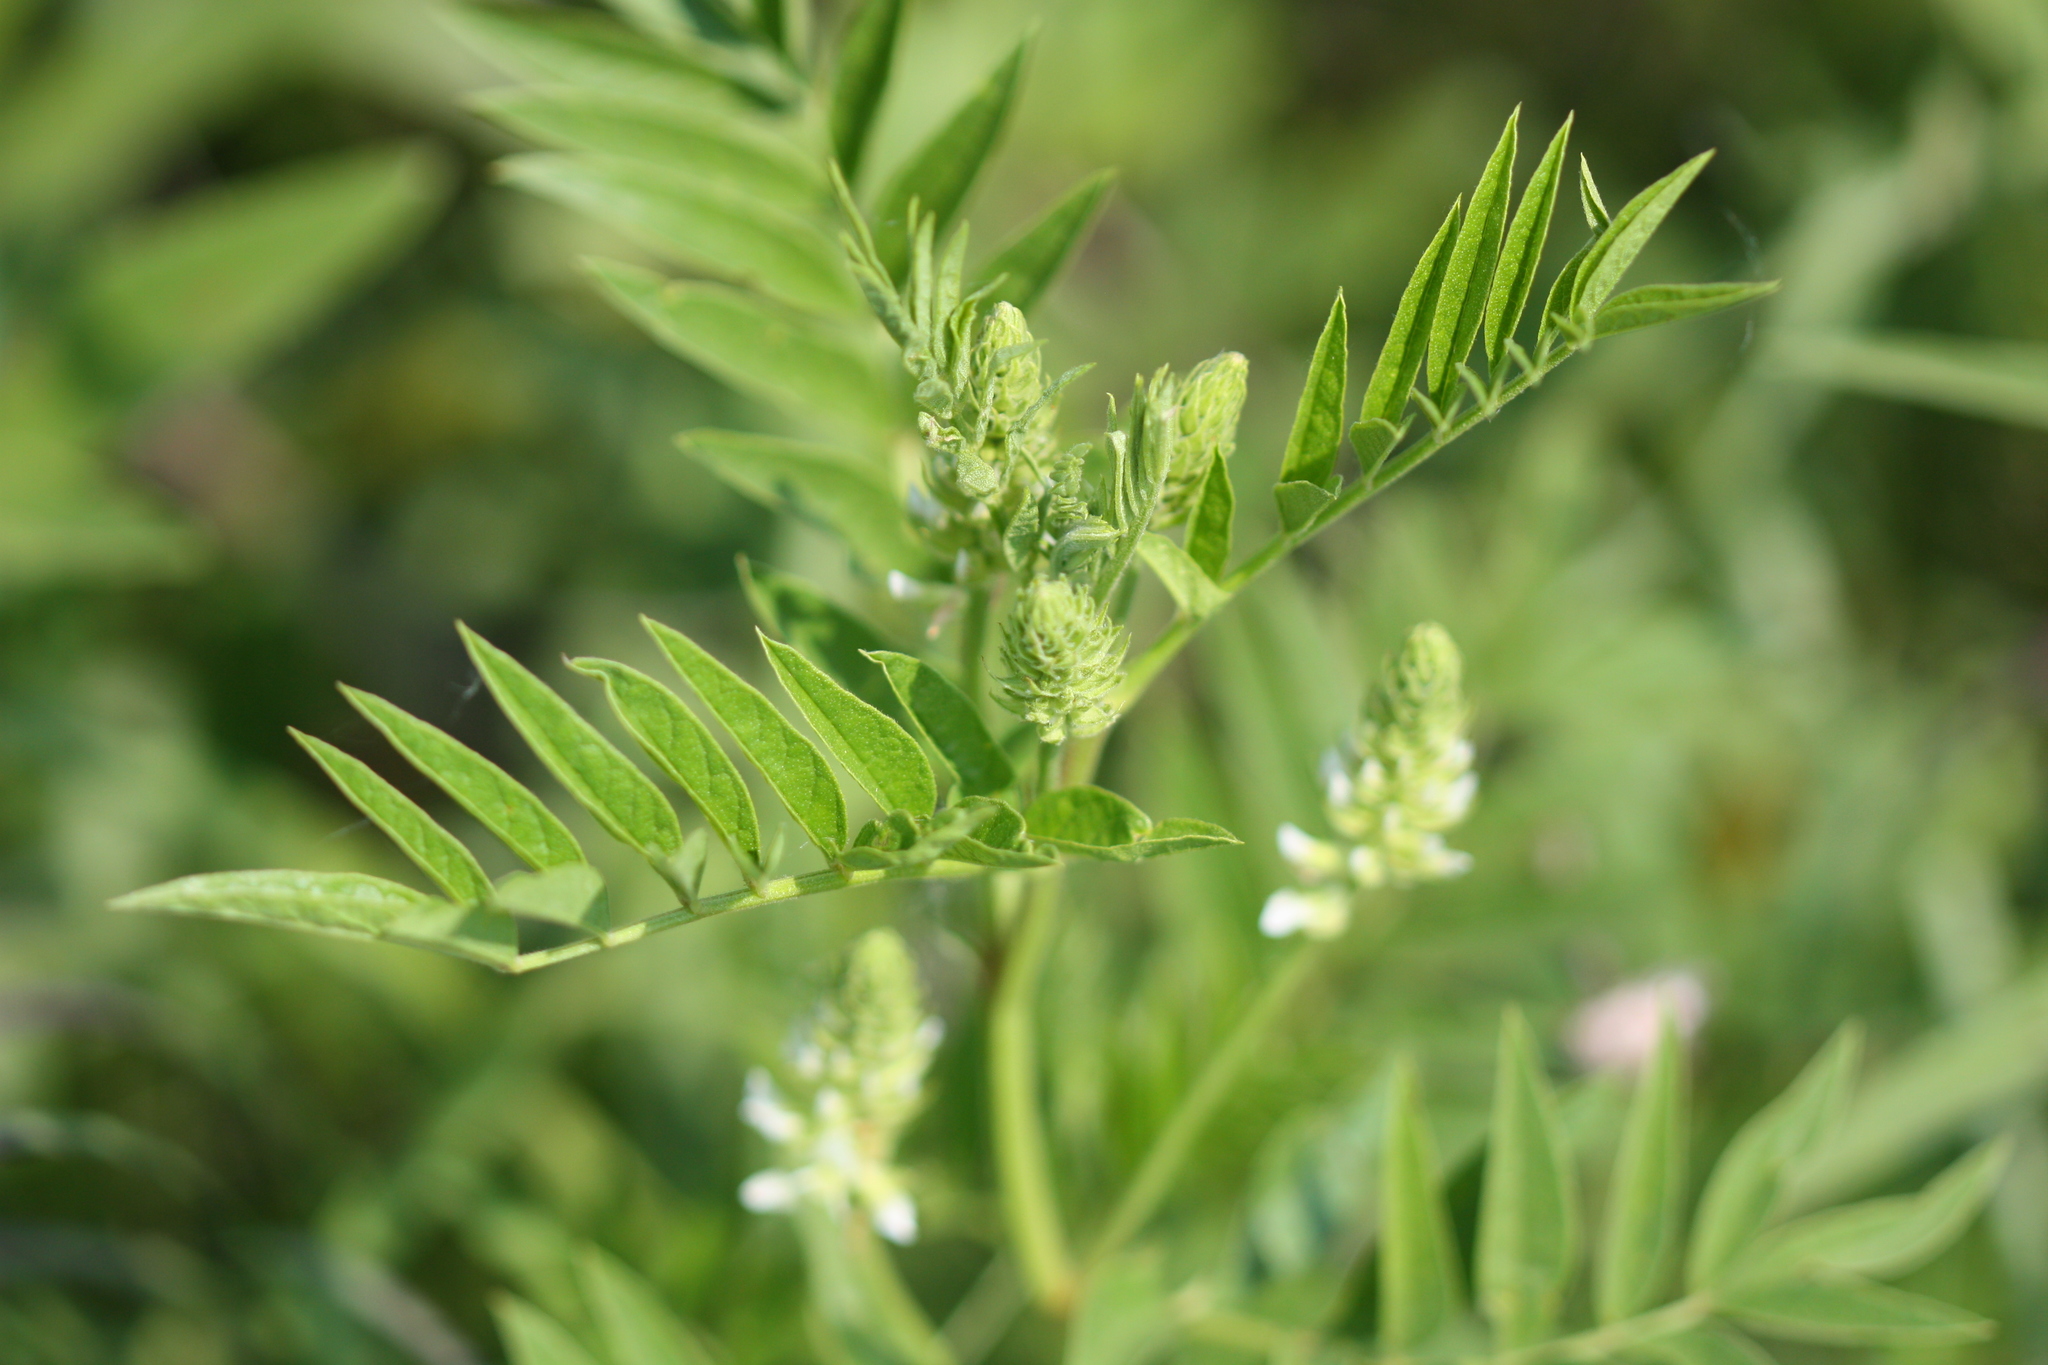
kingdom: Plantae
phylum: Tracheophyta
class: Magnoliopsida
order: Fabales
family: Fabaceae
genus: Glycyrrhiza
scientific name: Glycyrrhiza lepidota
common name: American liquorice
